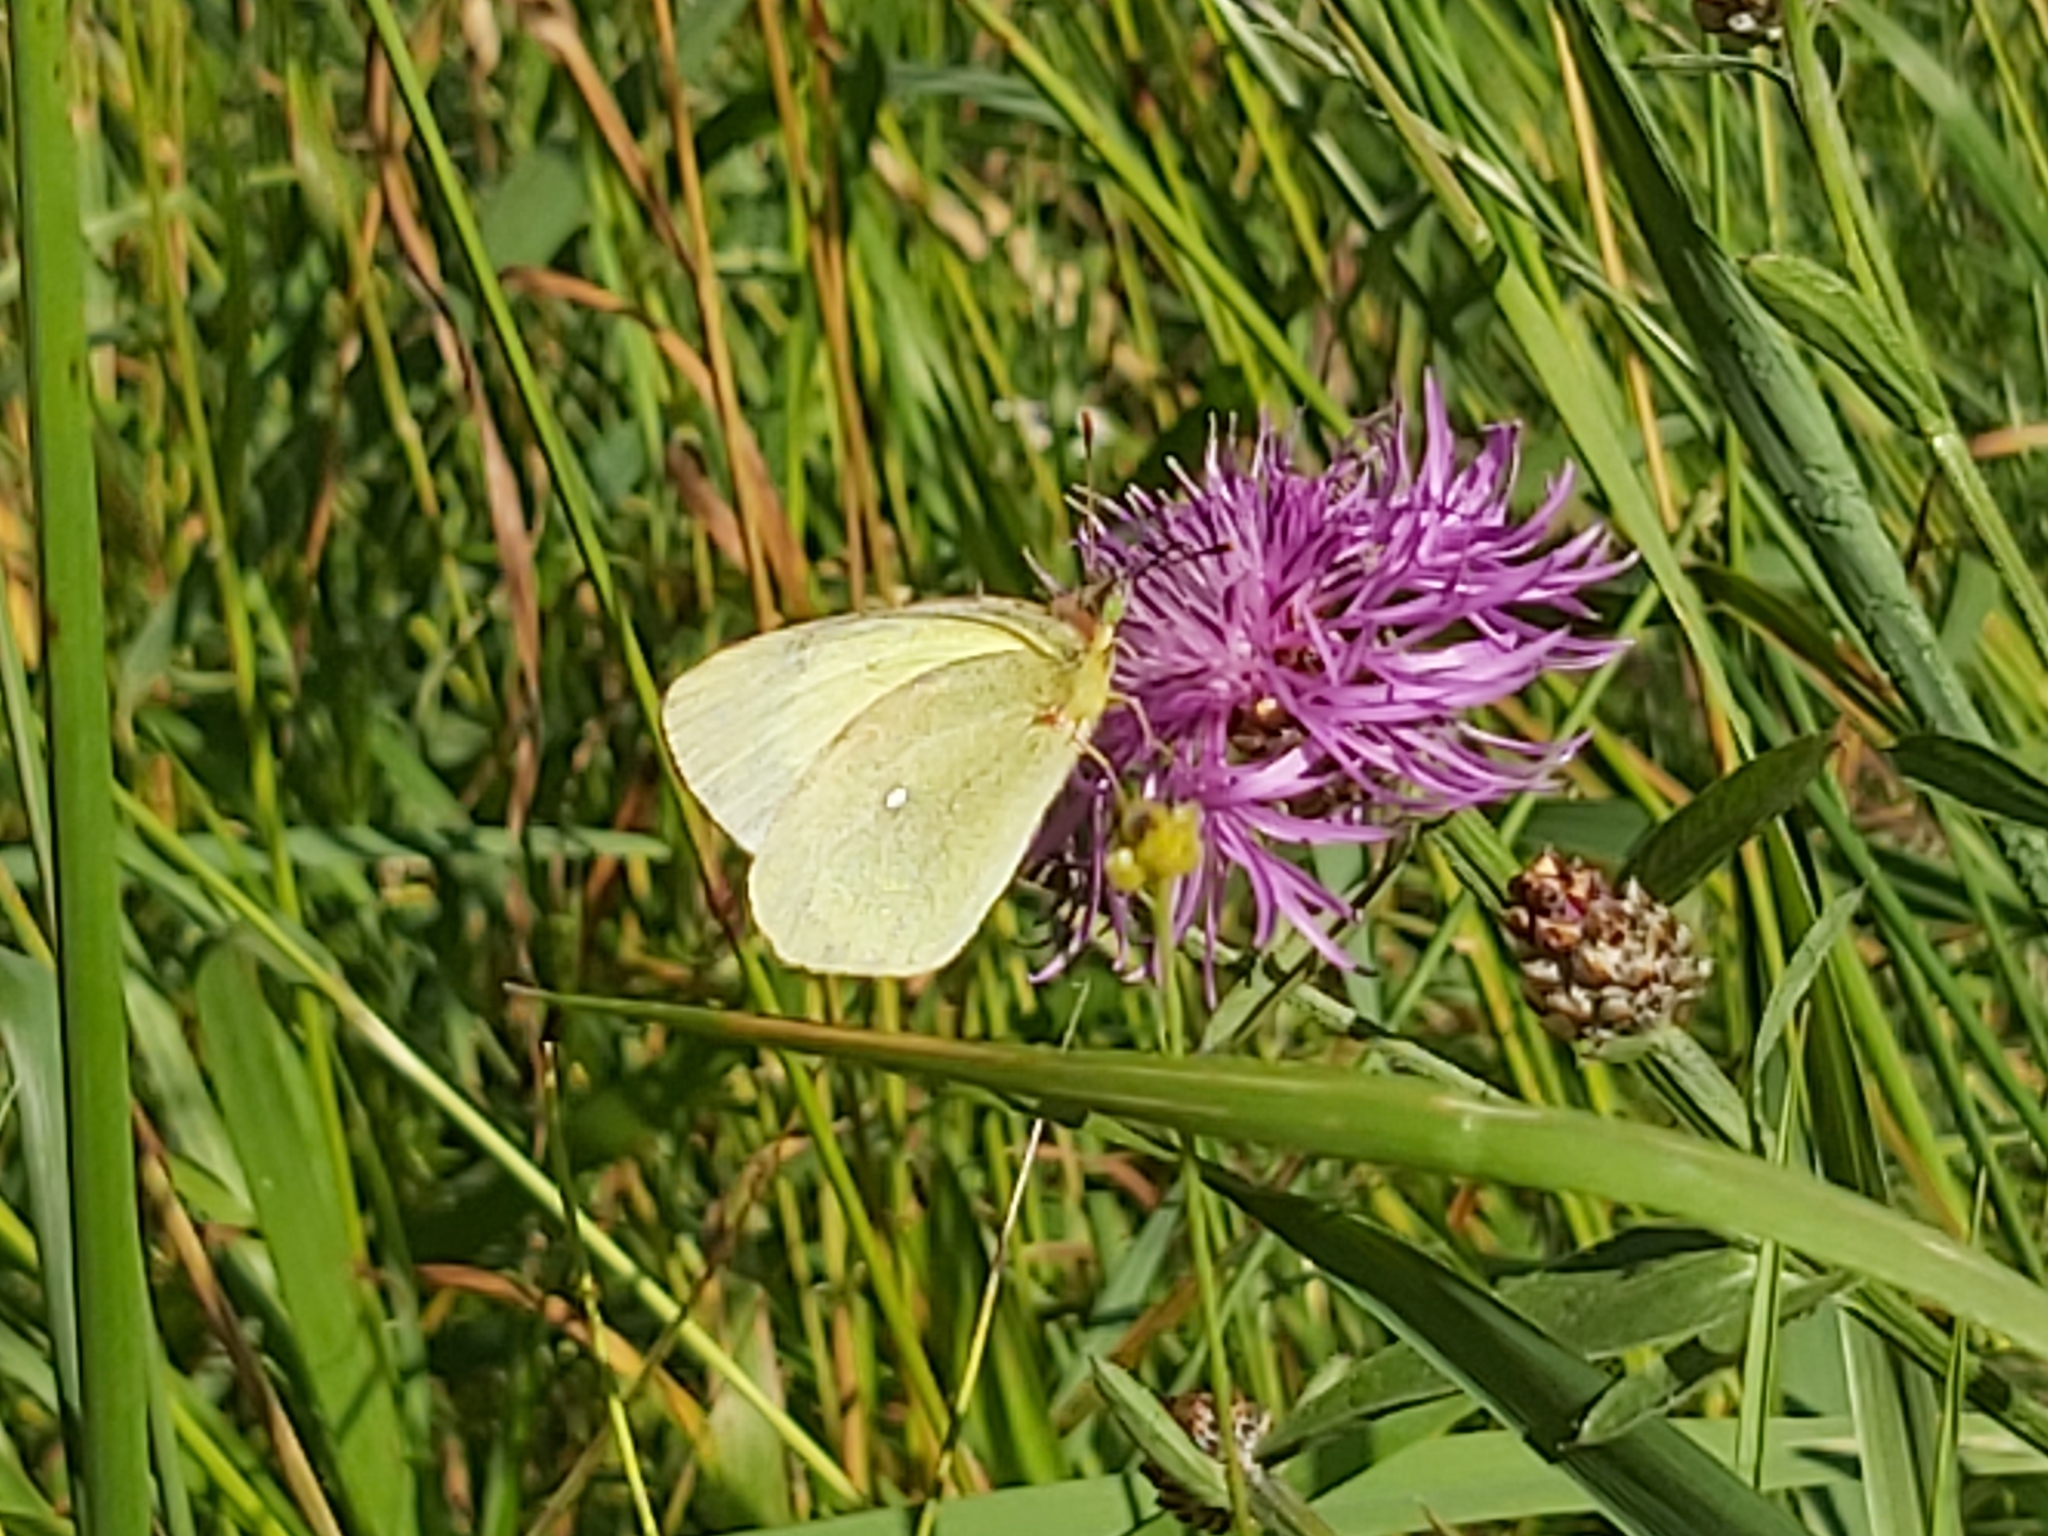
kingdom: Animalia
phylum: Arthropoda
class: Insecta
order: Lepidoptera
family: Pieridae
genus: Colias
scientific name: Colias palaeno
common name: Moorland clouded yellow
